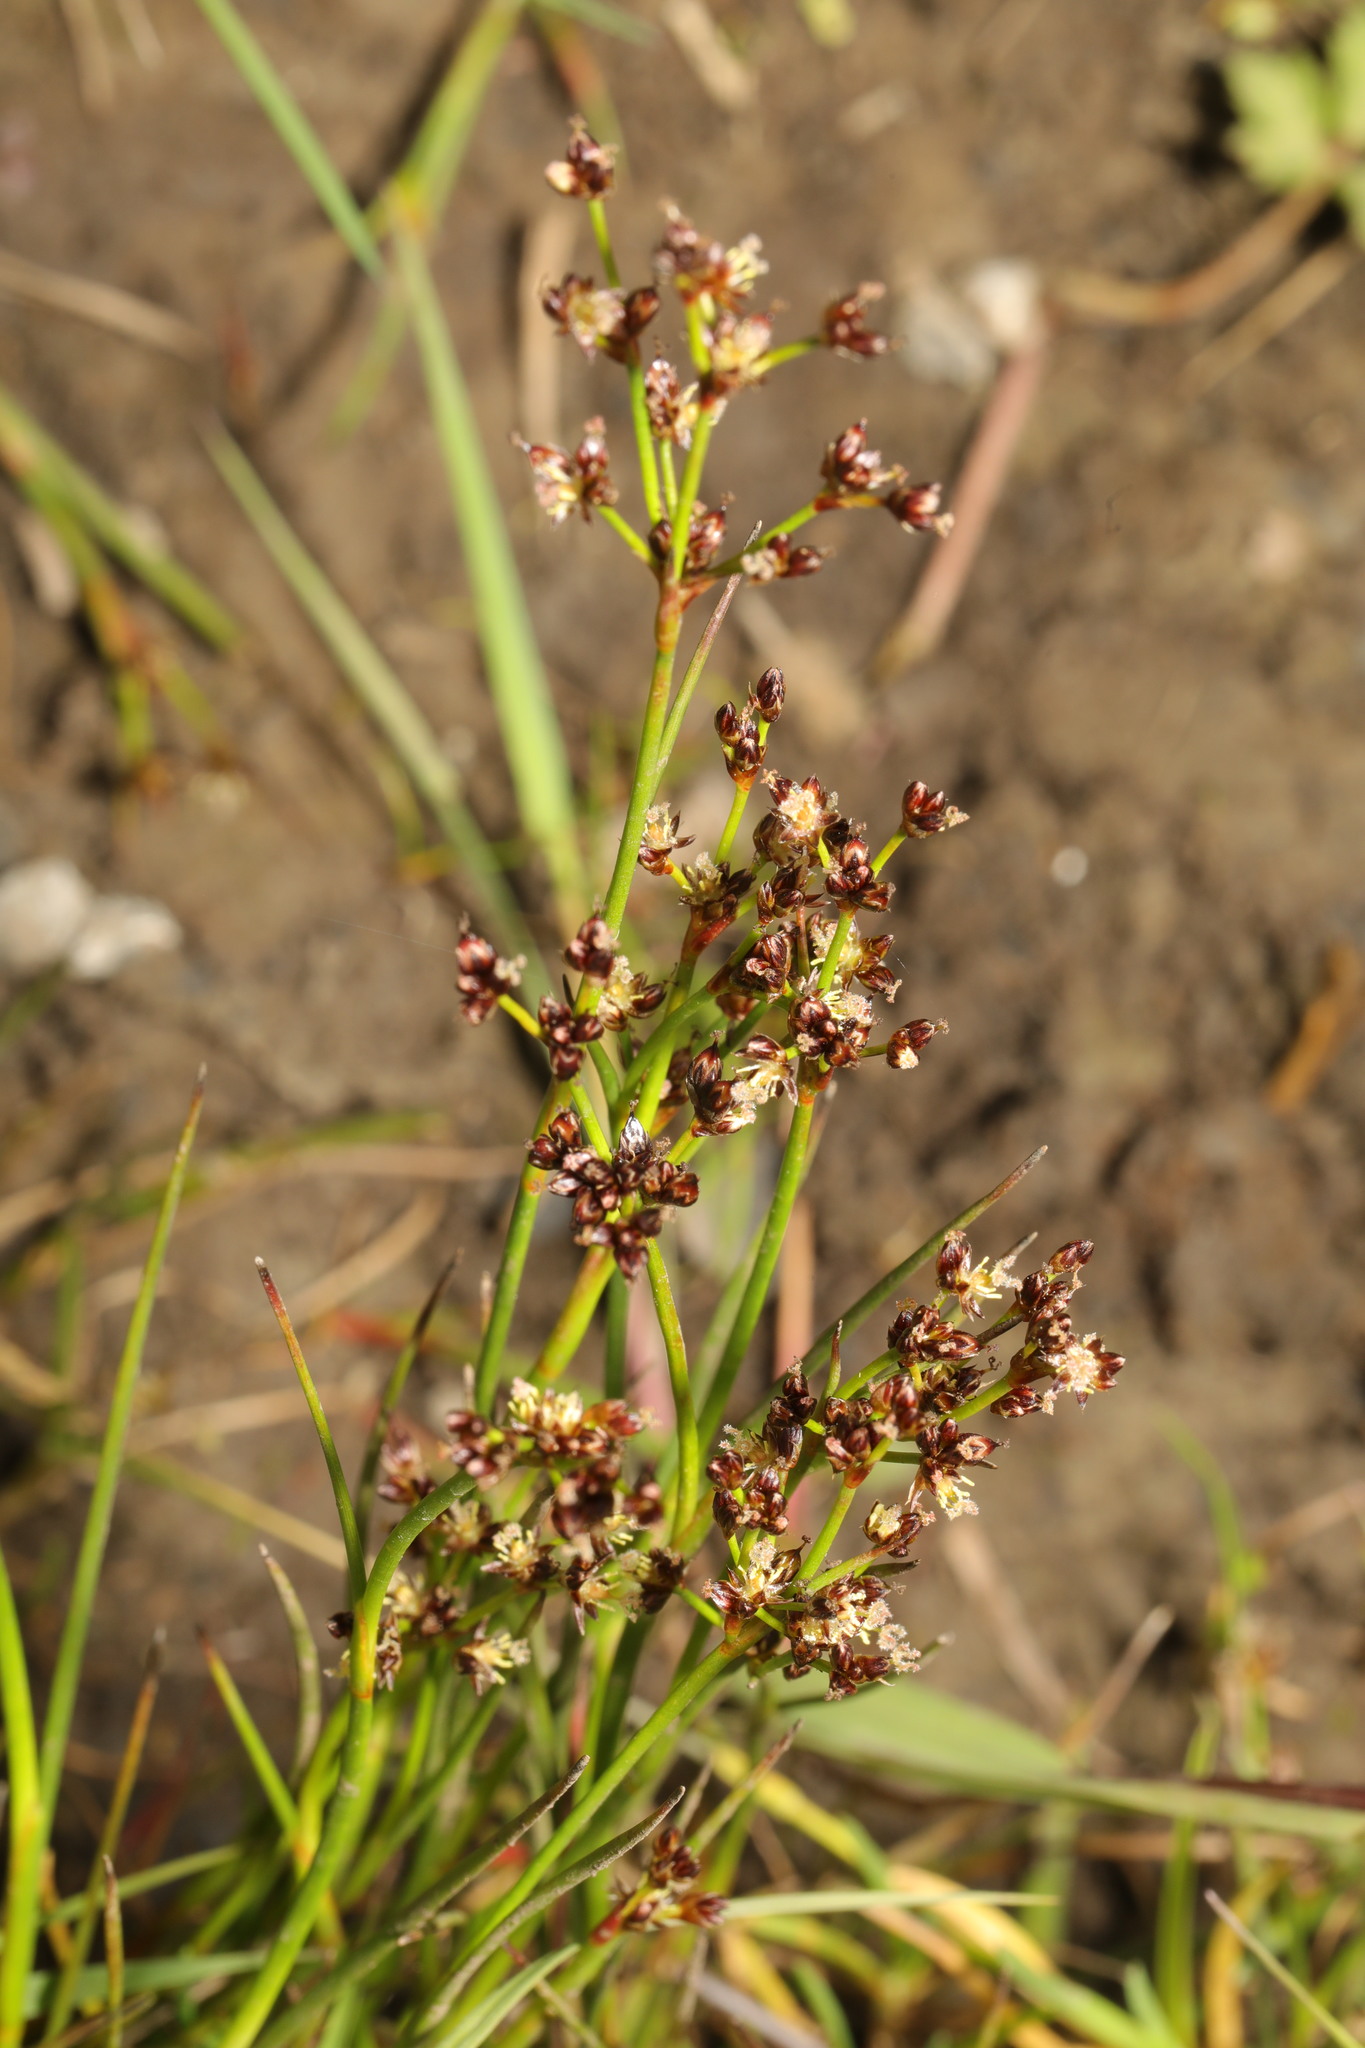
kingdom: Plantae
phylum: Tracheophyta
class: Liliopsida
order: Poales
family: Juncaceae
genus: Juncus
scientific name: Juncus articulatus
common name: Jointed rush
